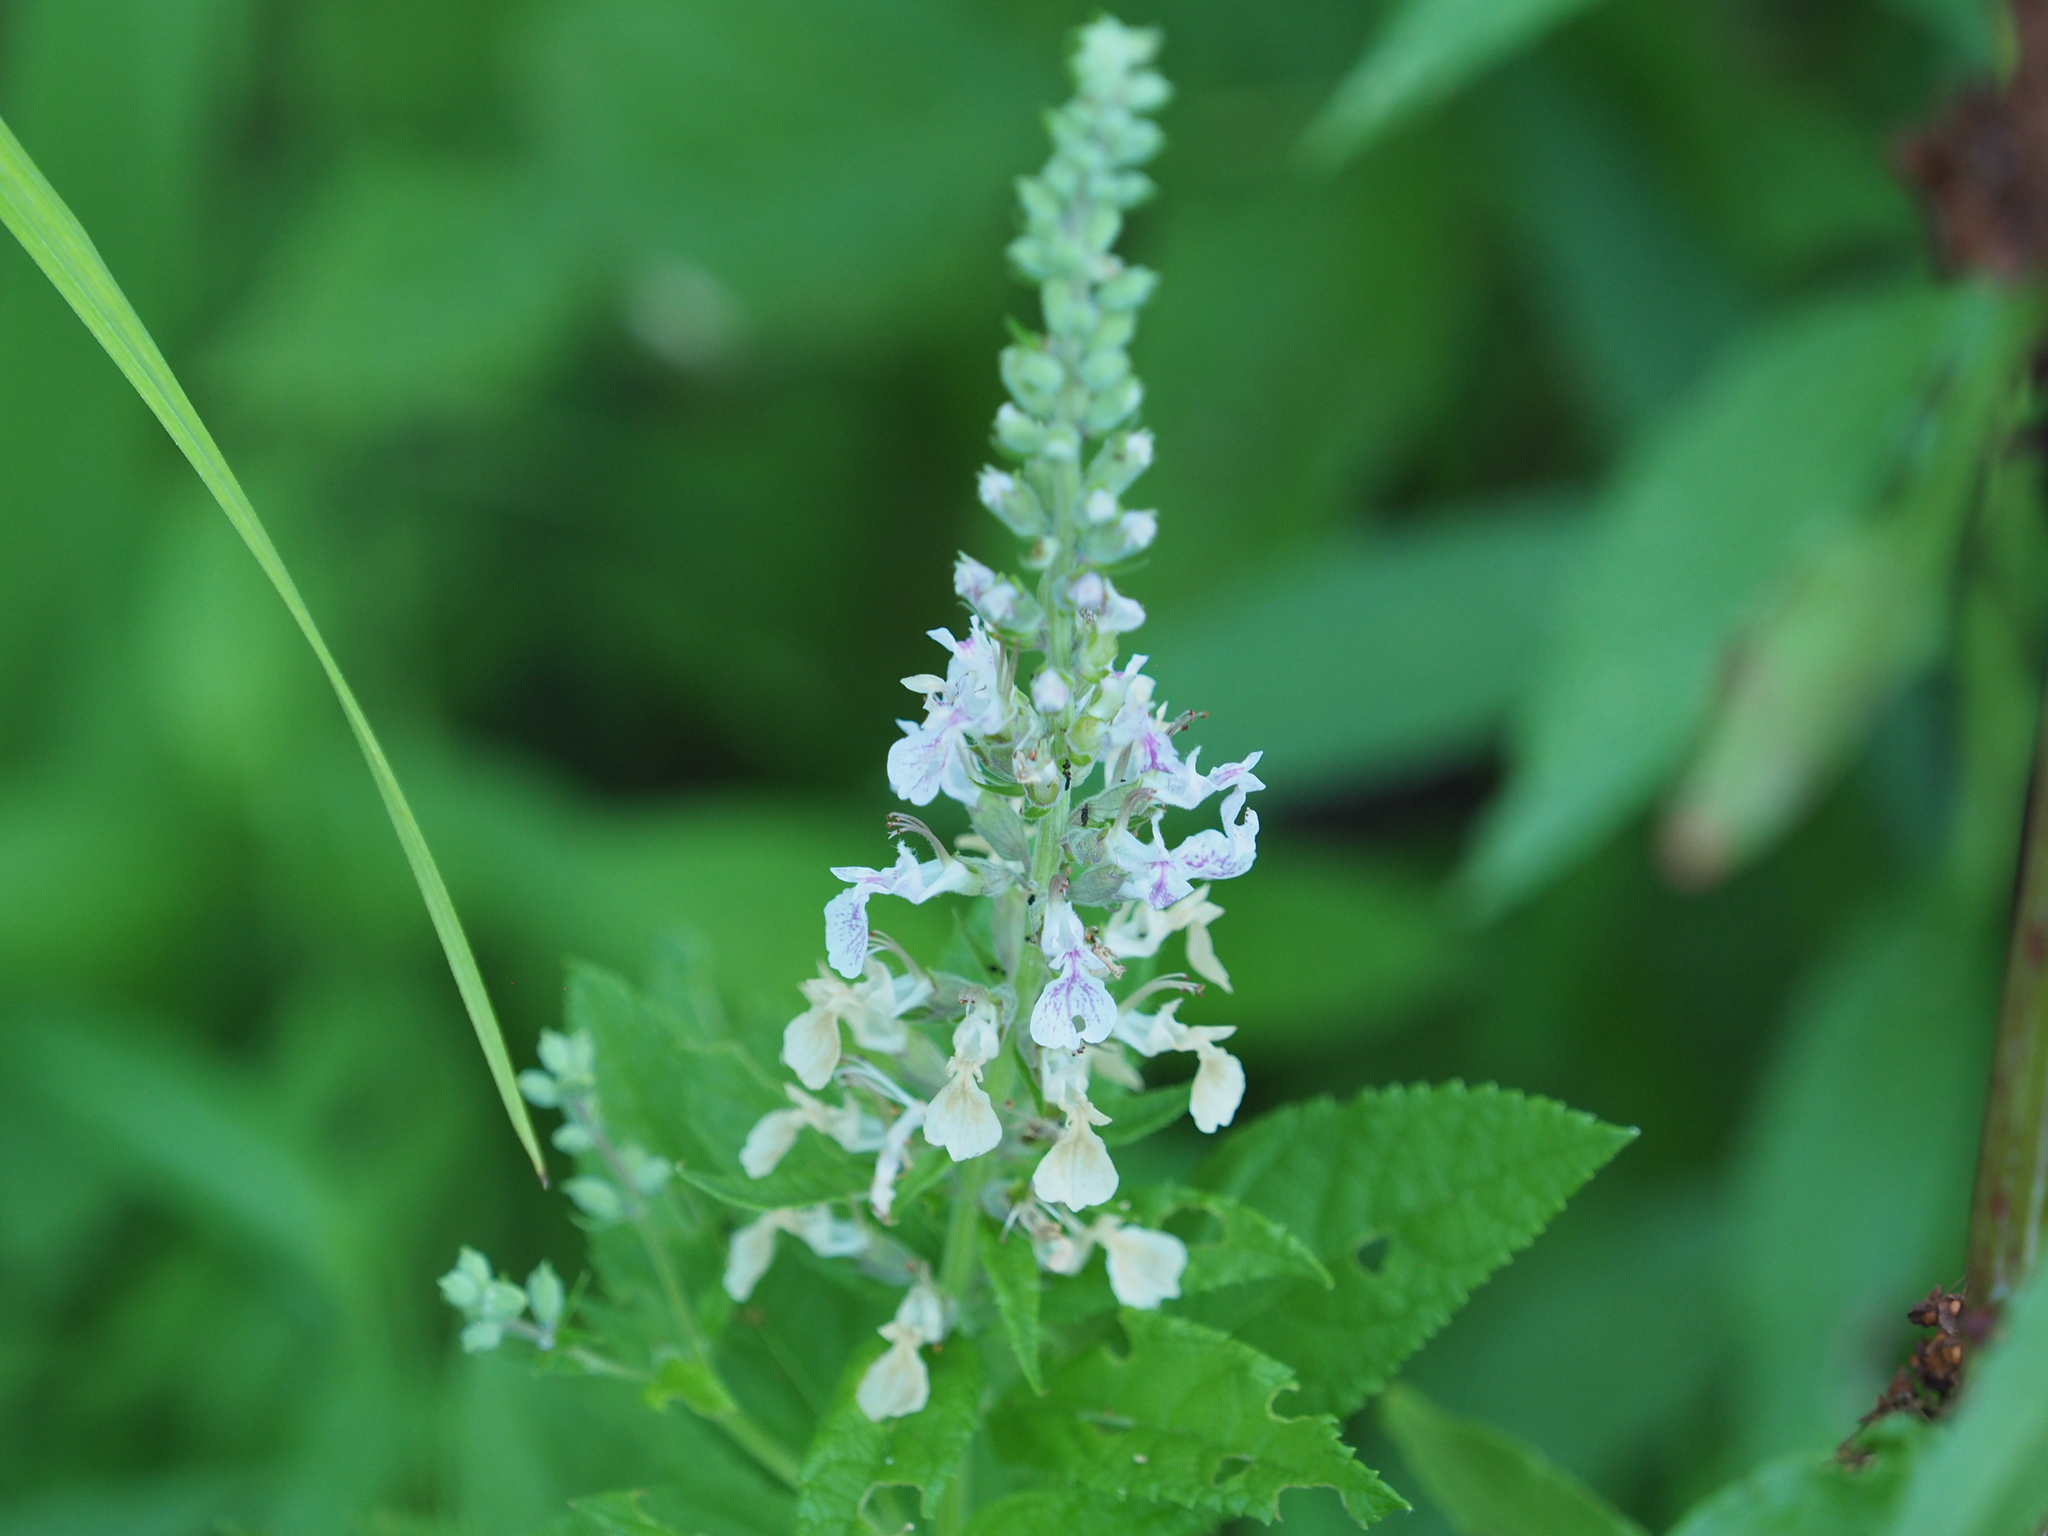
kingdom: Plantae
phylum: Tracheophyta
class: Magnoliopsida
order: Lamiales
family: Lamiaceae
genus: Teucrium
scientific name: Teucrium canadense
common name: American germander
